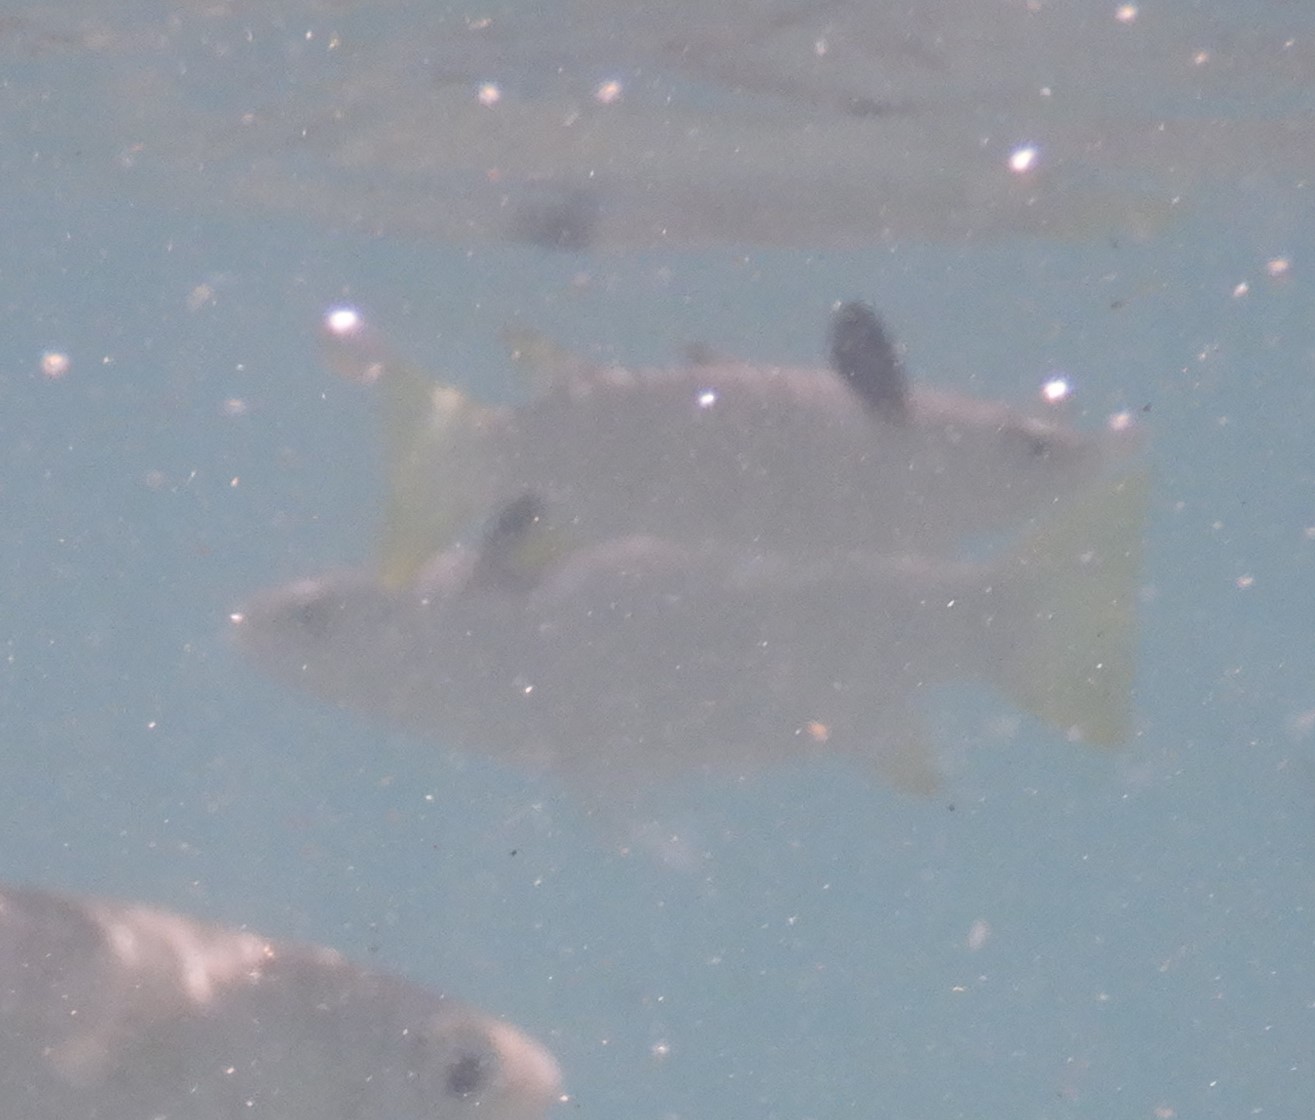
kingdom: Animalia
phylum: Chordata
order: Mugiliformes
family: Mugilidae
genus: Ellochelon
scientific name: Ellochelon vaigiensis
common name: Squaretail mullet
